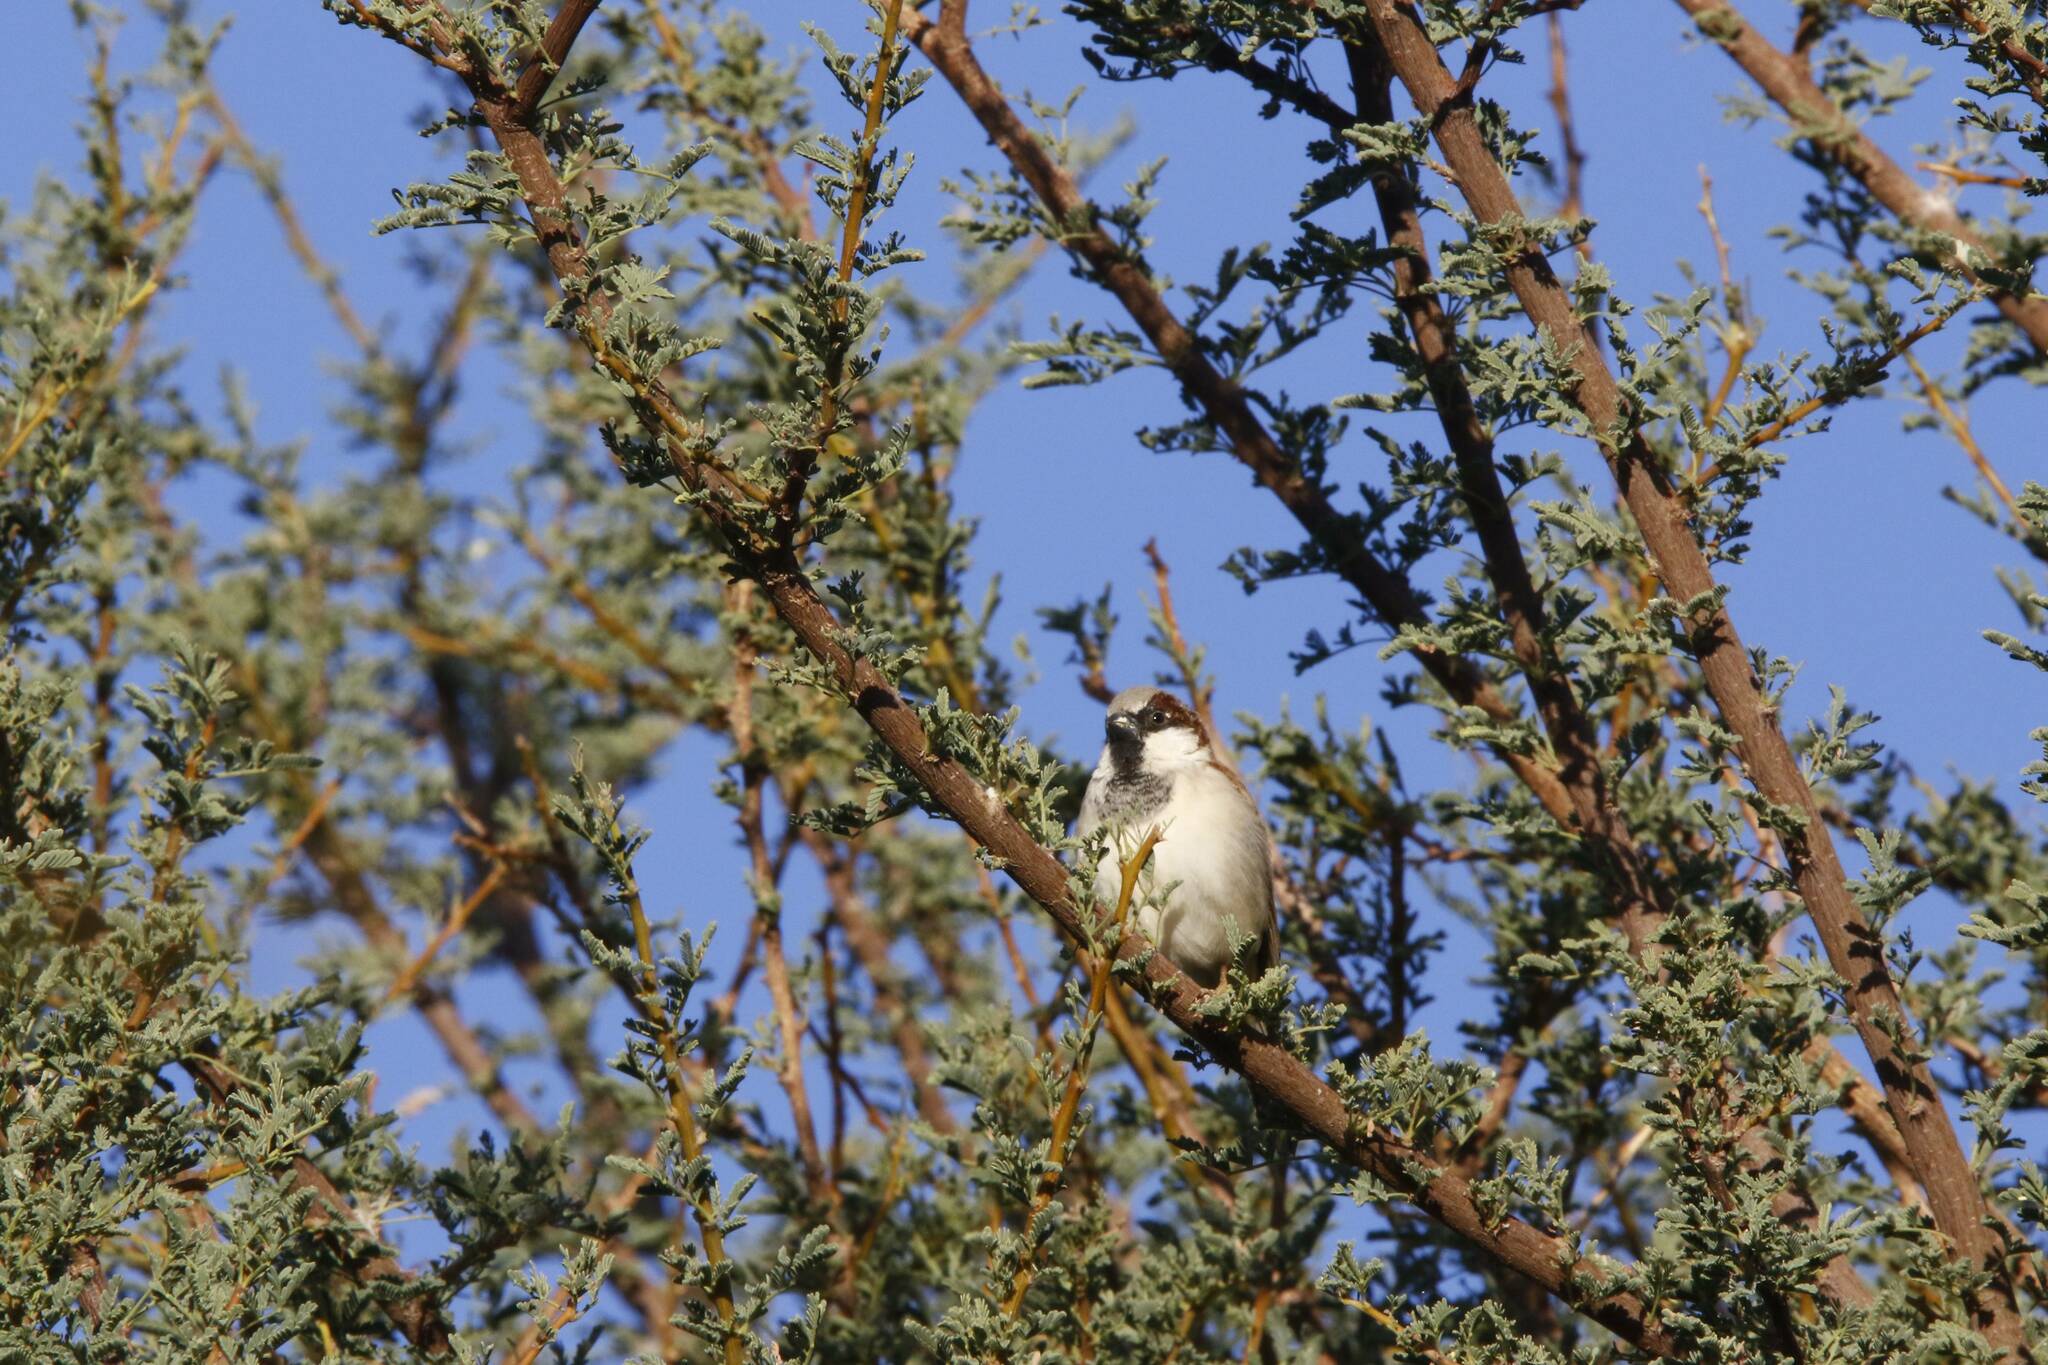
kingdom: Animalia
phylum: Chordata
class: Aves
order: Passeriformes
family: Passeridae
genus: Passer
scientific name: Passer domesticus
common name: House sparrow
